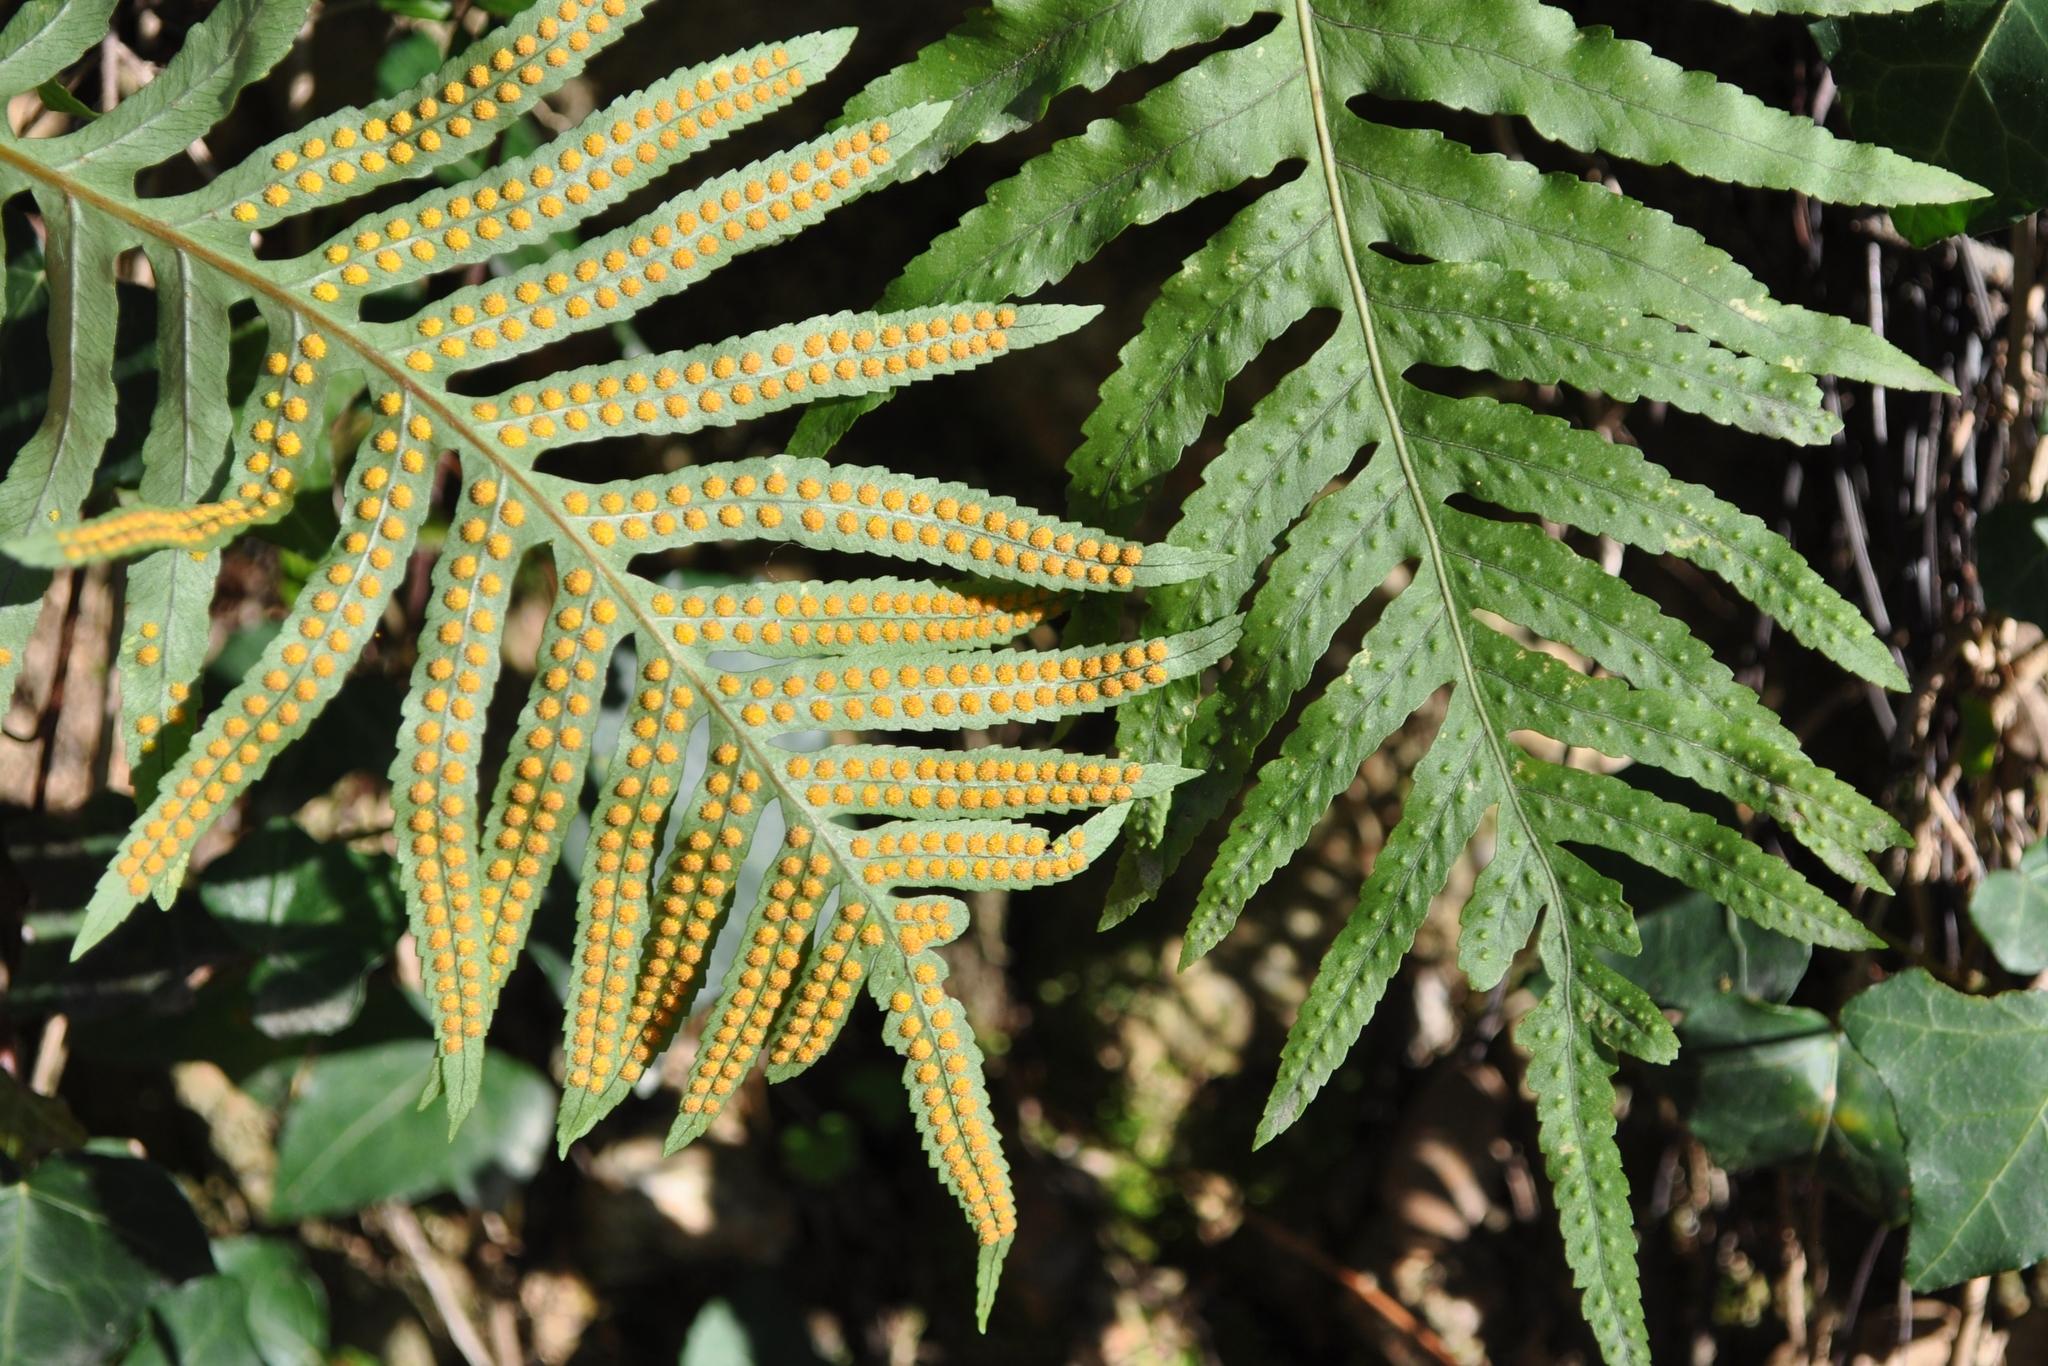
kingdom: Plantae
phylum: Tracheophyta
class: Polypodiopsida
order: Polypodiales
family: Polypodiaceae
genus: Polypodium
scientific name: Polypodium cambricum
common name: Southern polypody
